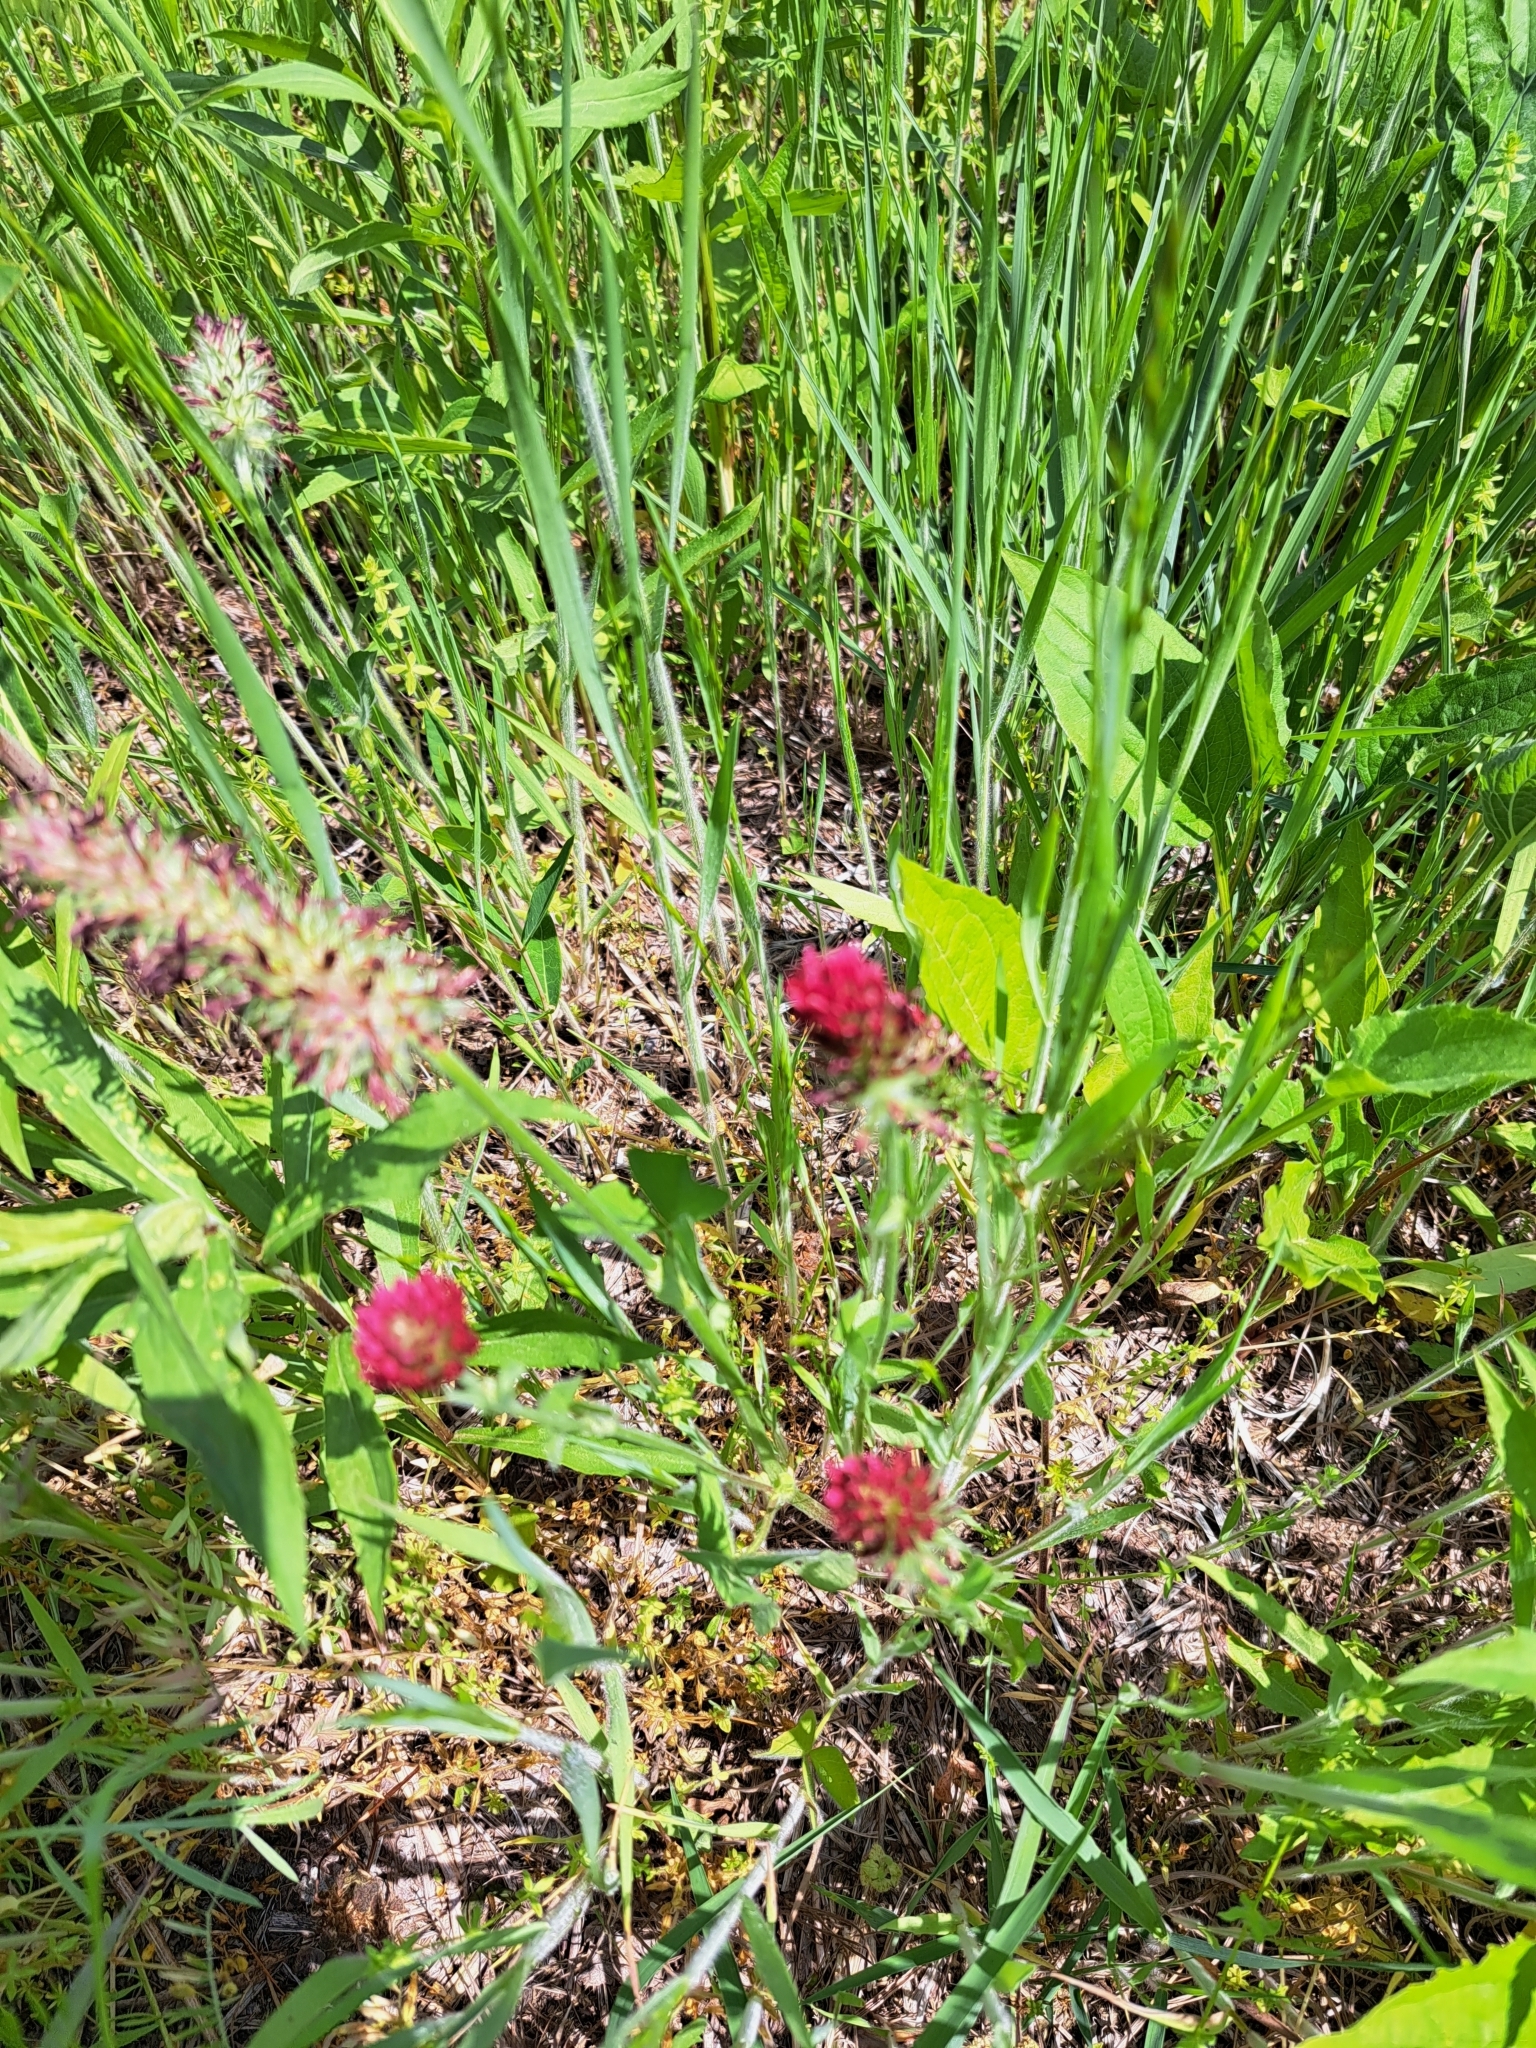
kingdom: Plantae
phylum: Tracheophyta
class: Magnoliopsida
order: Fabales
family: Fabaceae
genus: Trifolium
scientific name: Trifolium incarnatum
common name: Crimson clover
